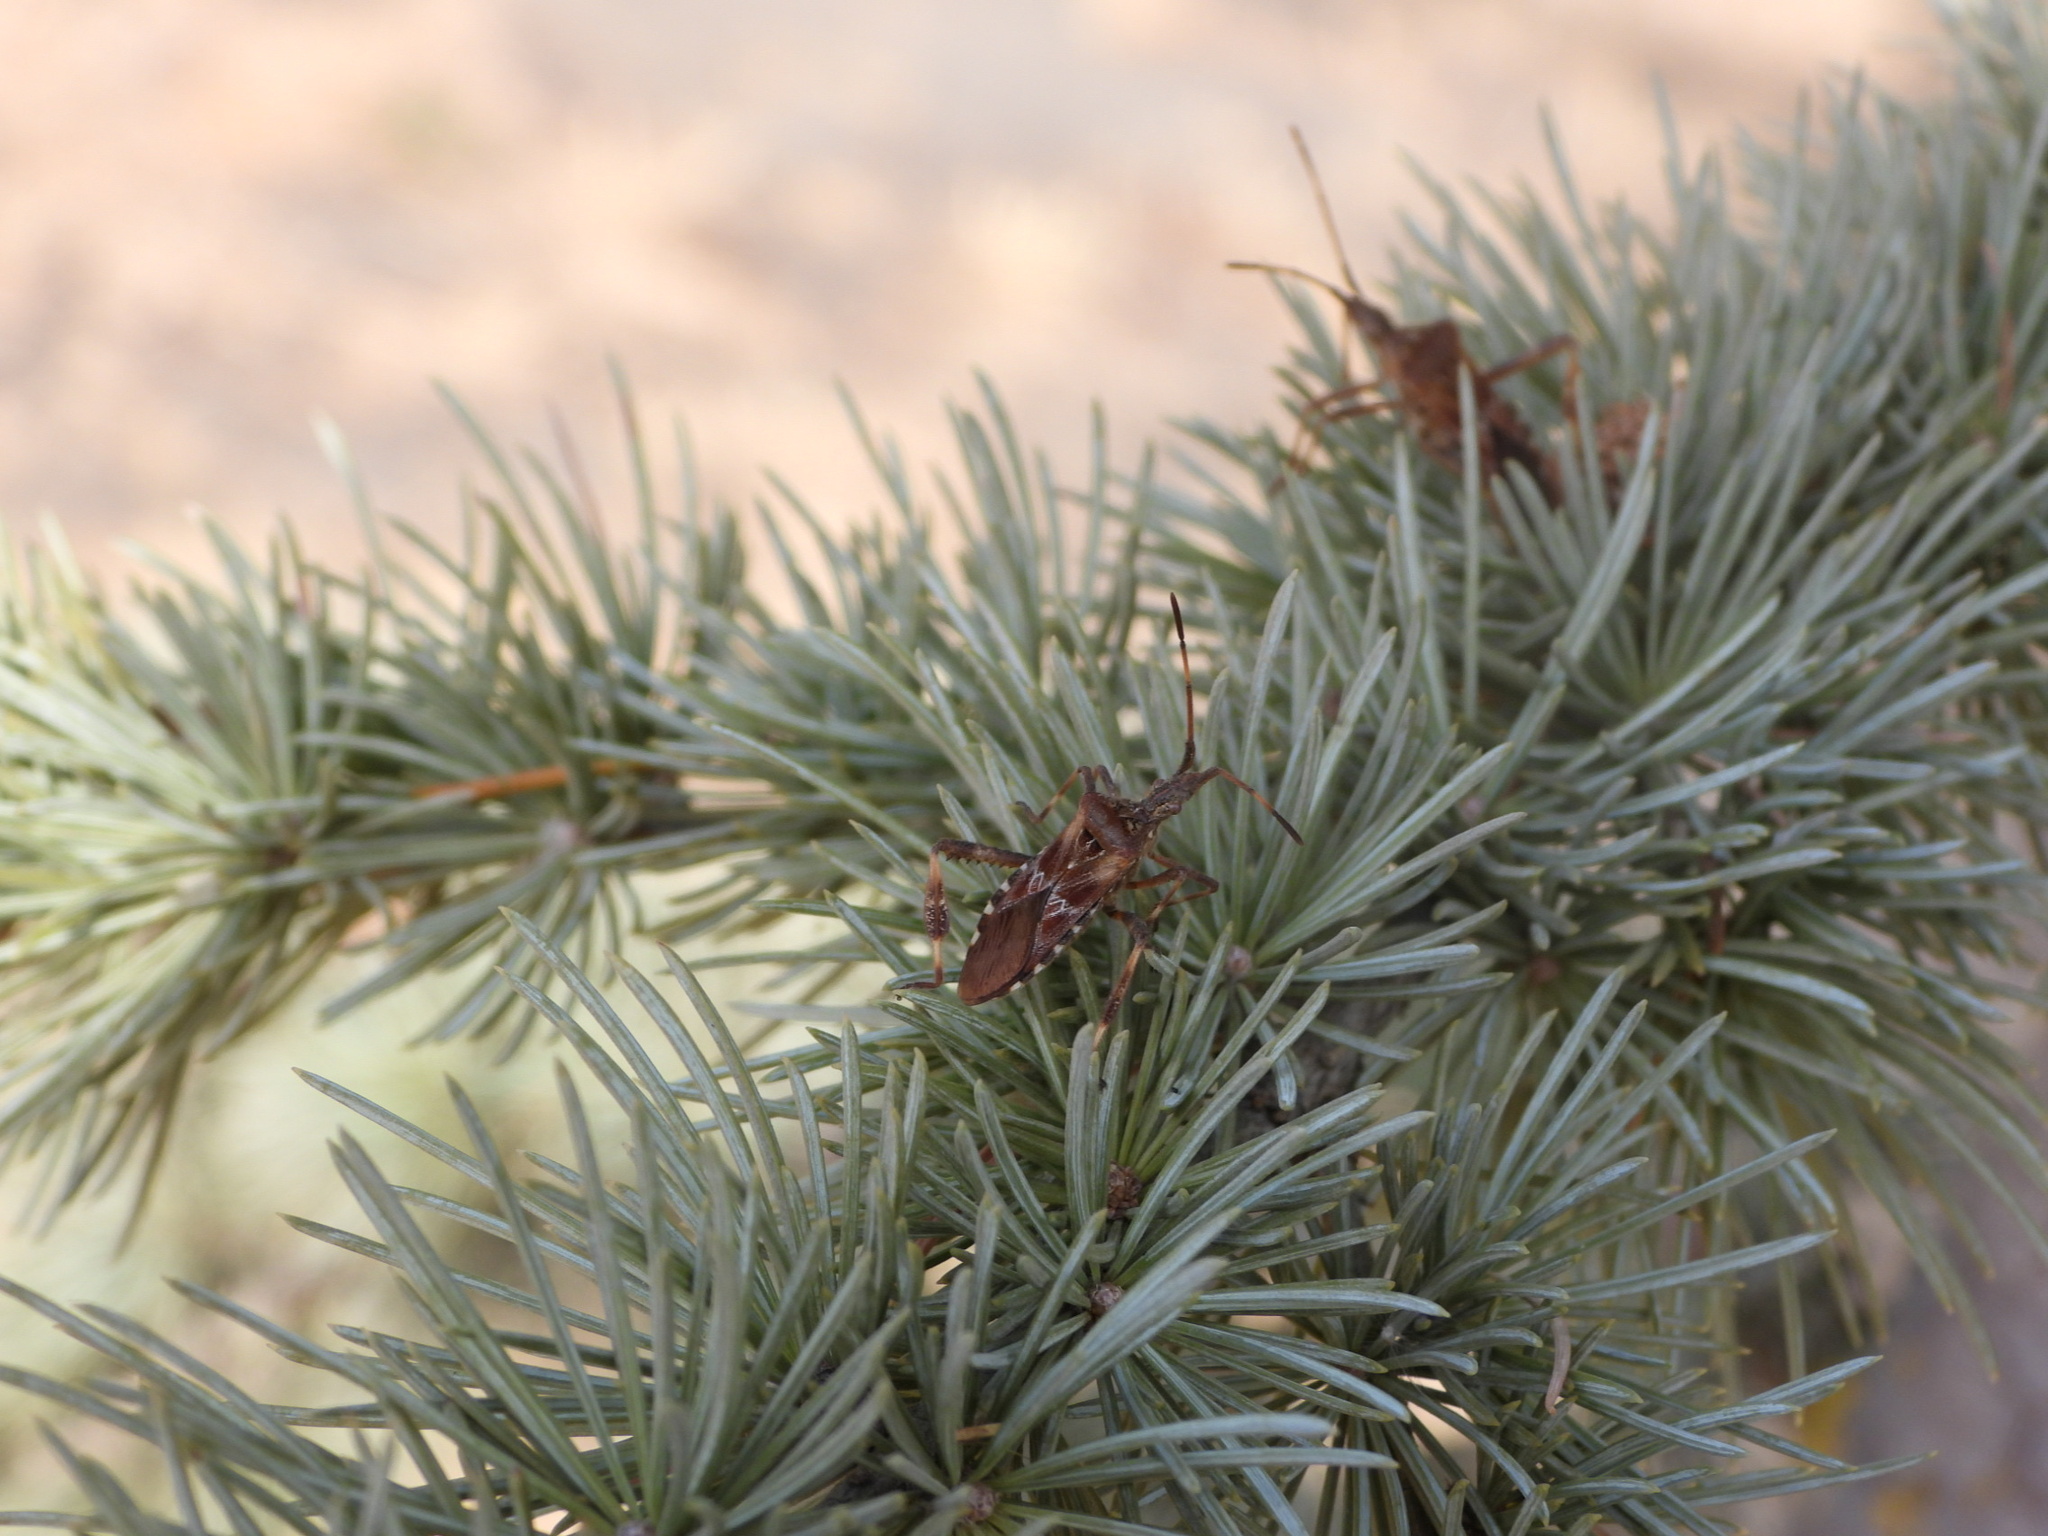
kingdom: Animalia
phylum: Arthropoda
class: Insecta
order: Hemiptera
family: Coreidae
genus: Leptoglossus
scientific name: Leptoglossus occidentalis
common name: Western conifer-seed bug
